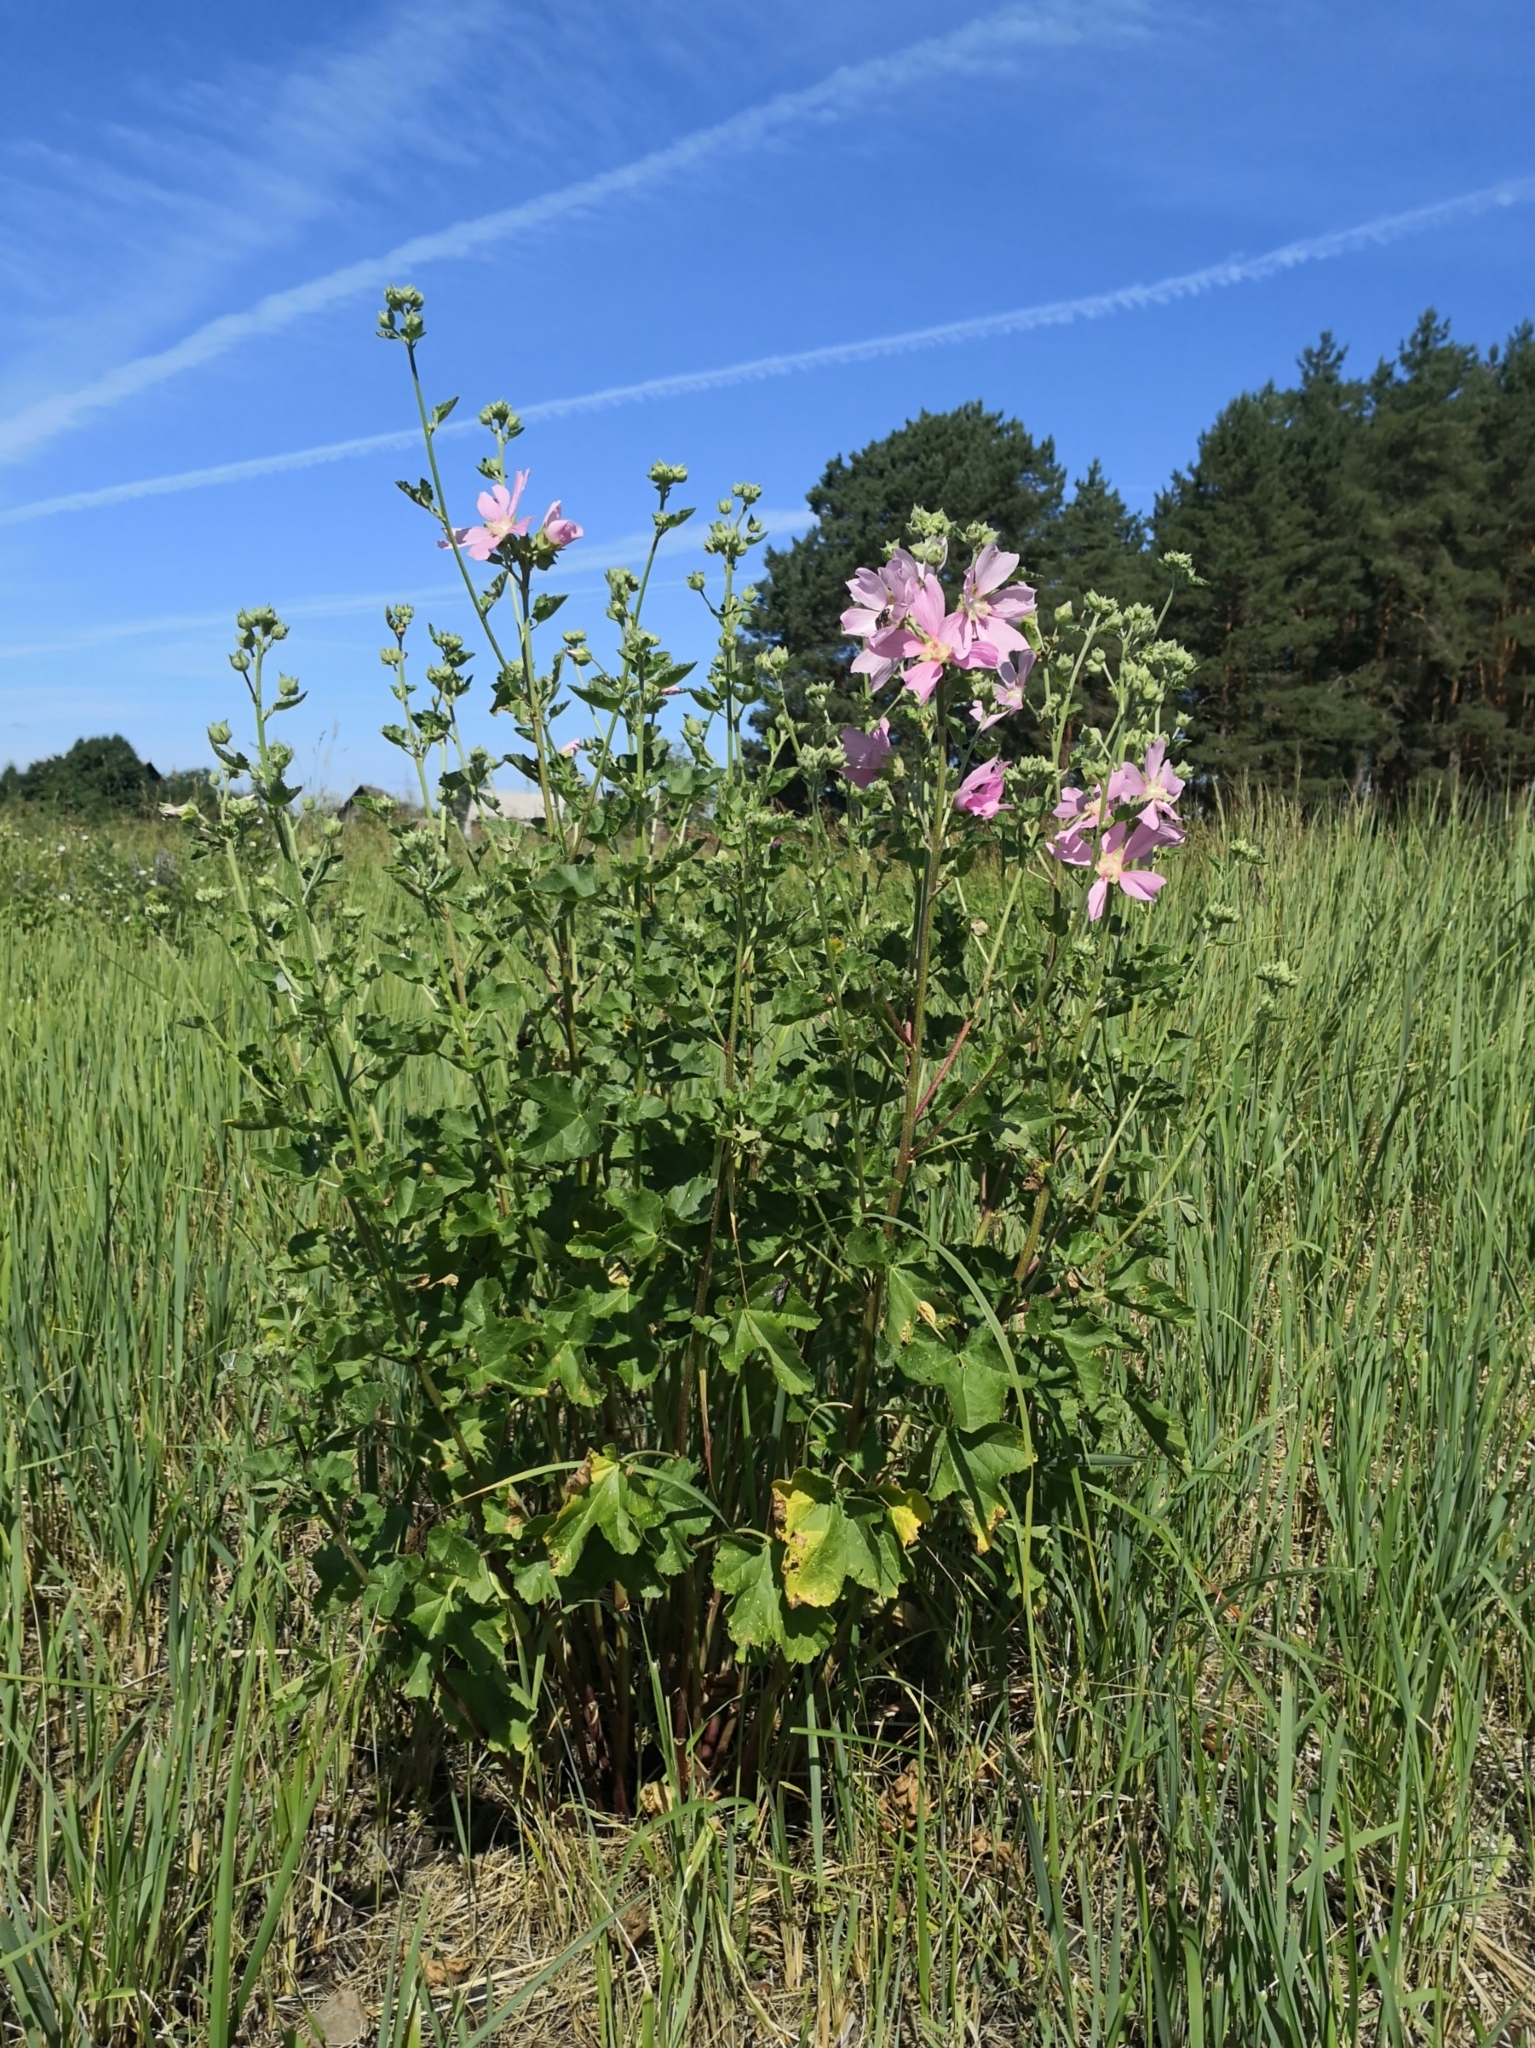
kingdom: Plantae
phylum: Tracheophyta
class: Magnoliopsida
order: Malvales
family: Malvaceae
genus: Malva
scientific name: Malva thuringiaca
